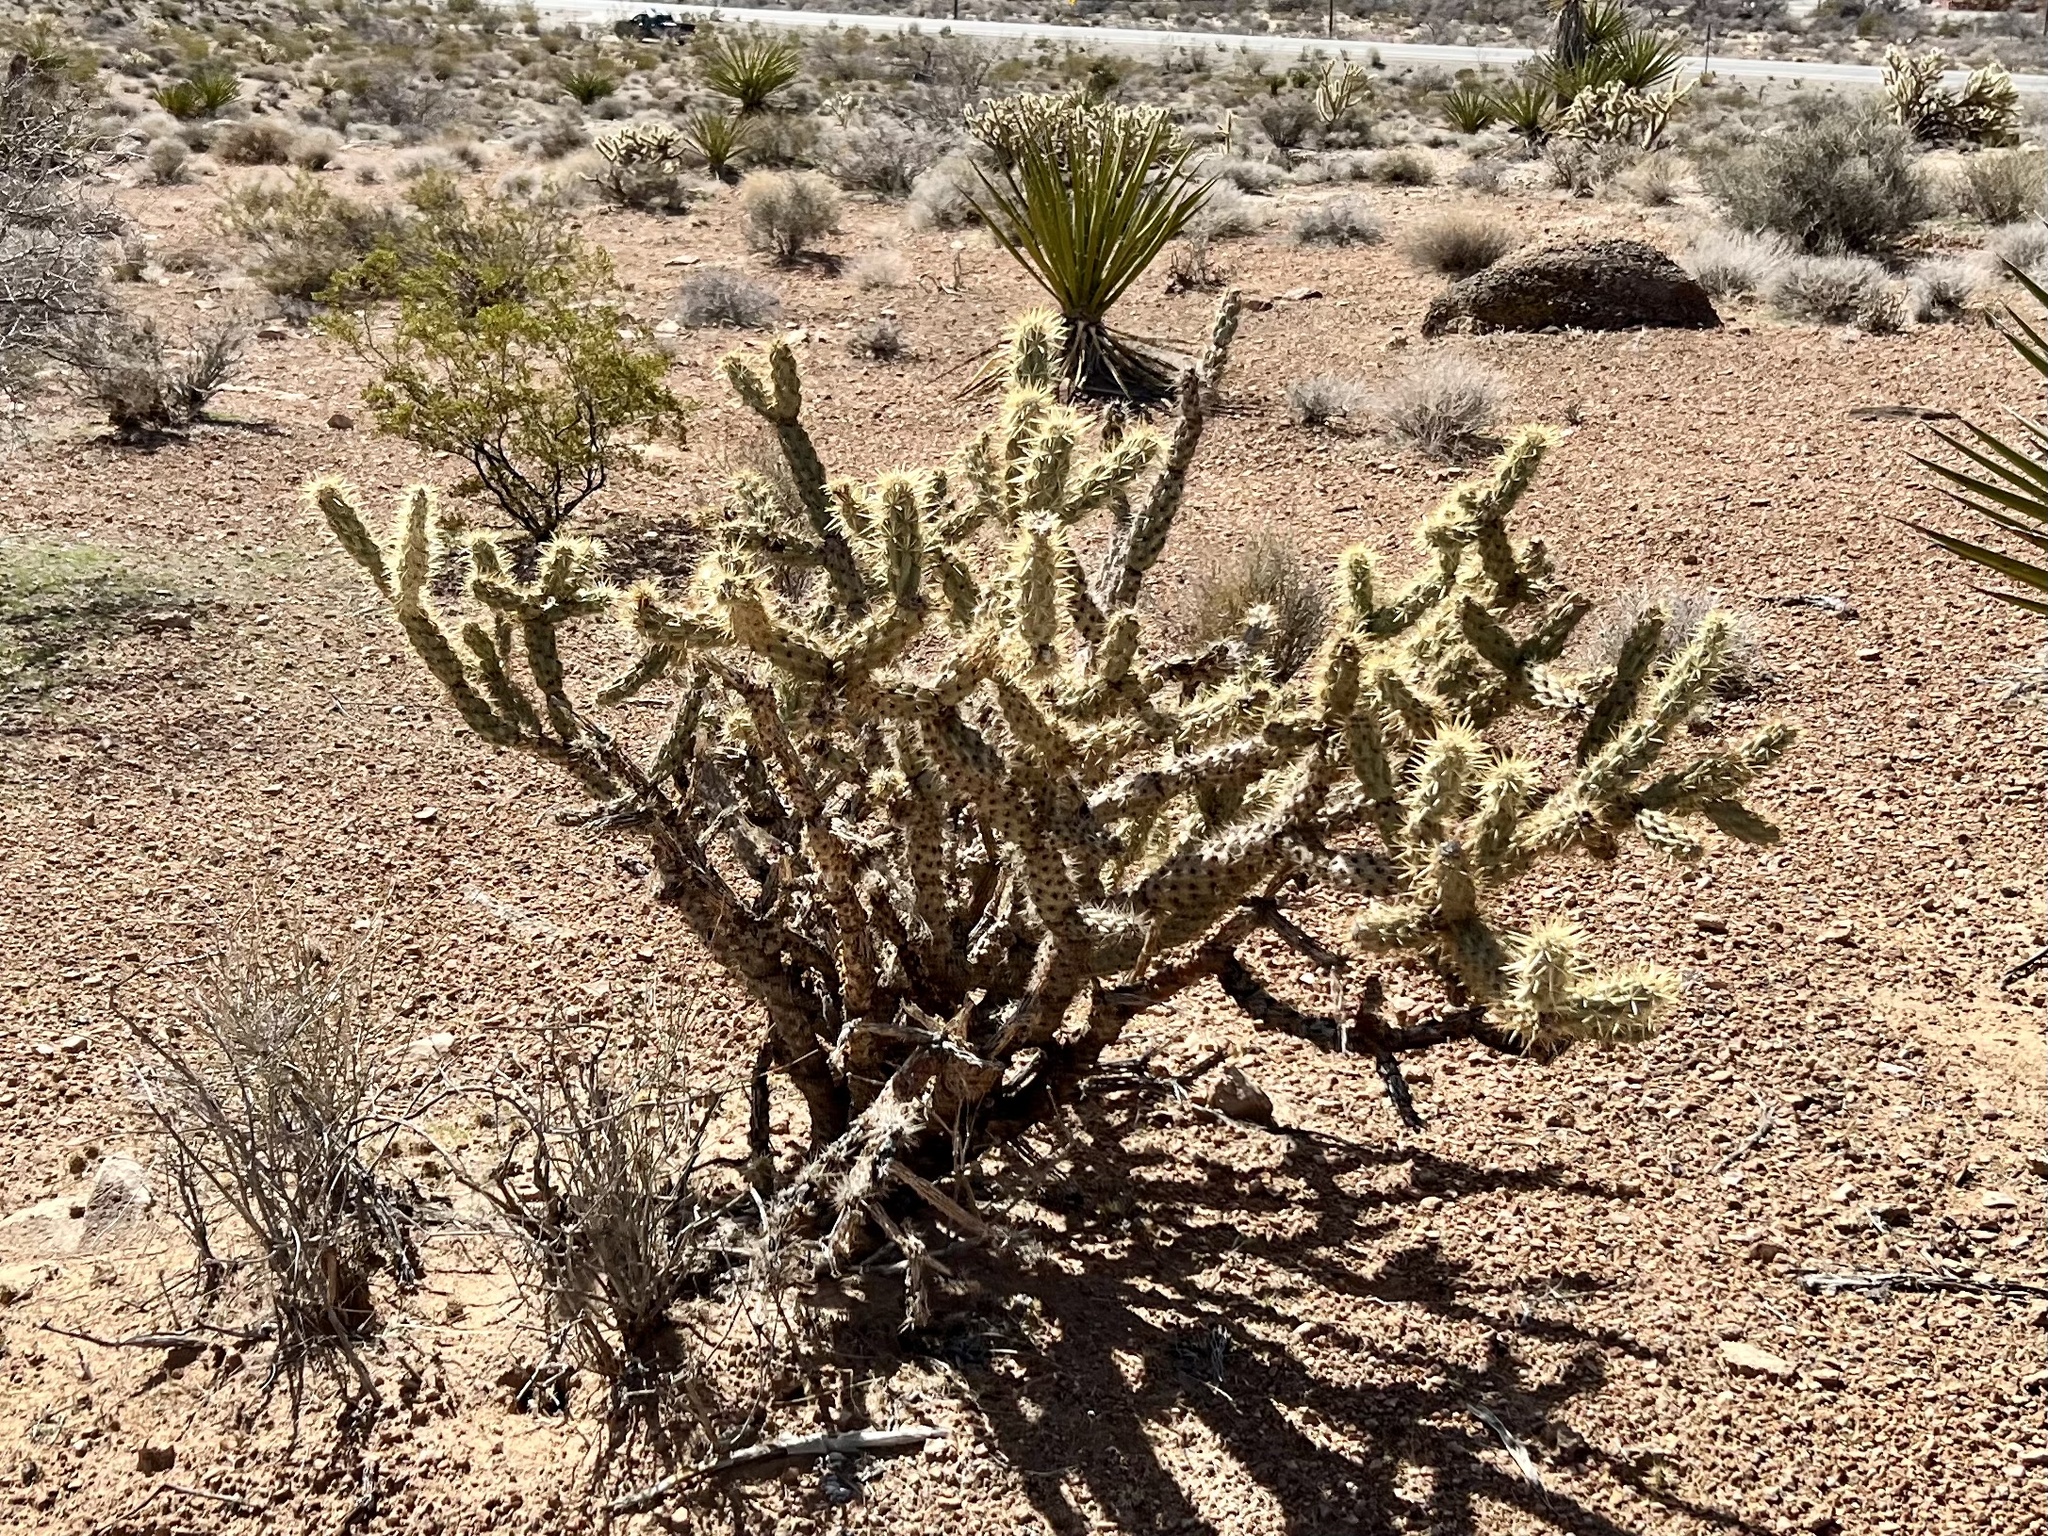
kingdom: Plantae
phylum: Tracheophyta
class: Magnoliopsida
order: Caryophyllales
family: Cactaceae
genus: Cylindropuntia
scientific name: Cylindropuntia acanthocarpa
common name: Buckhorn cholla
